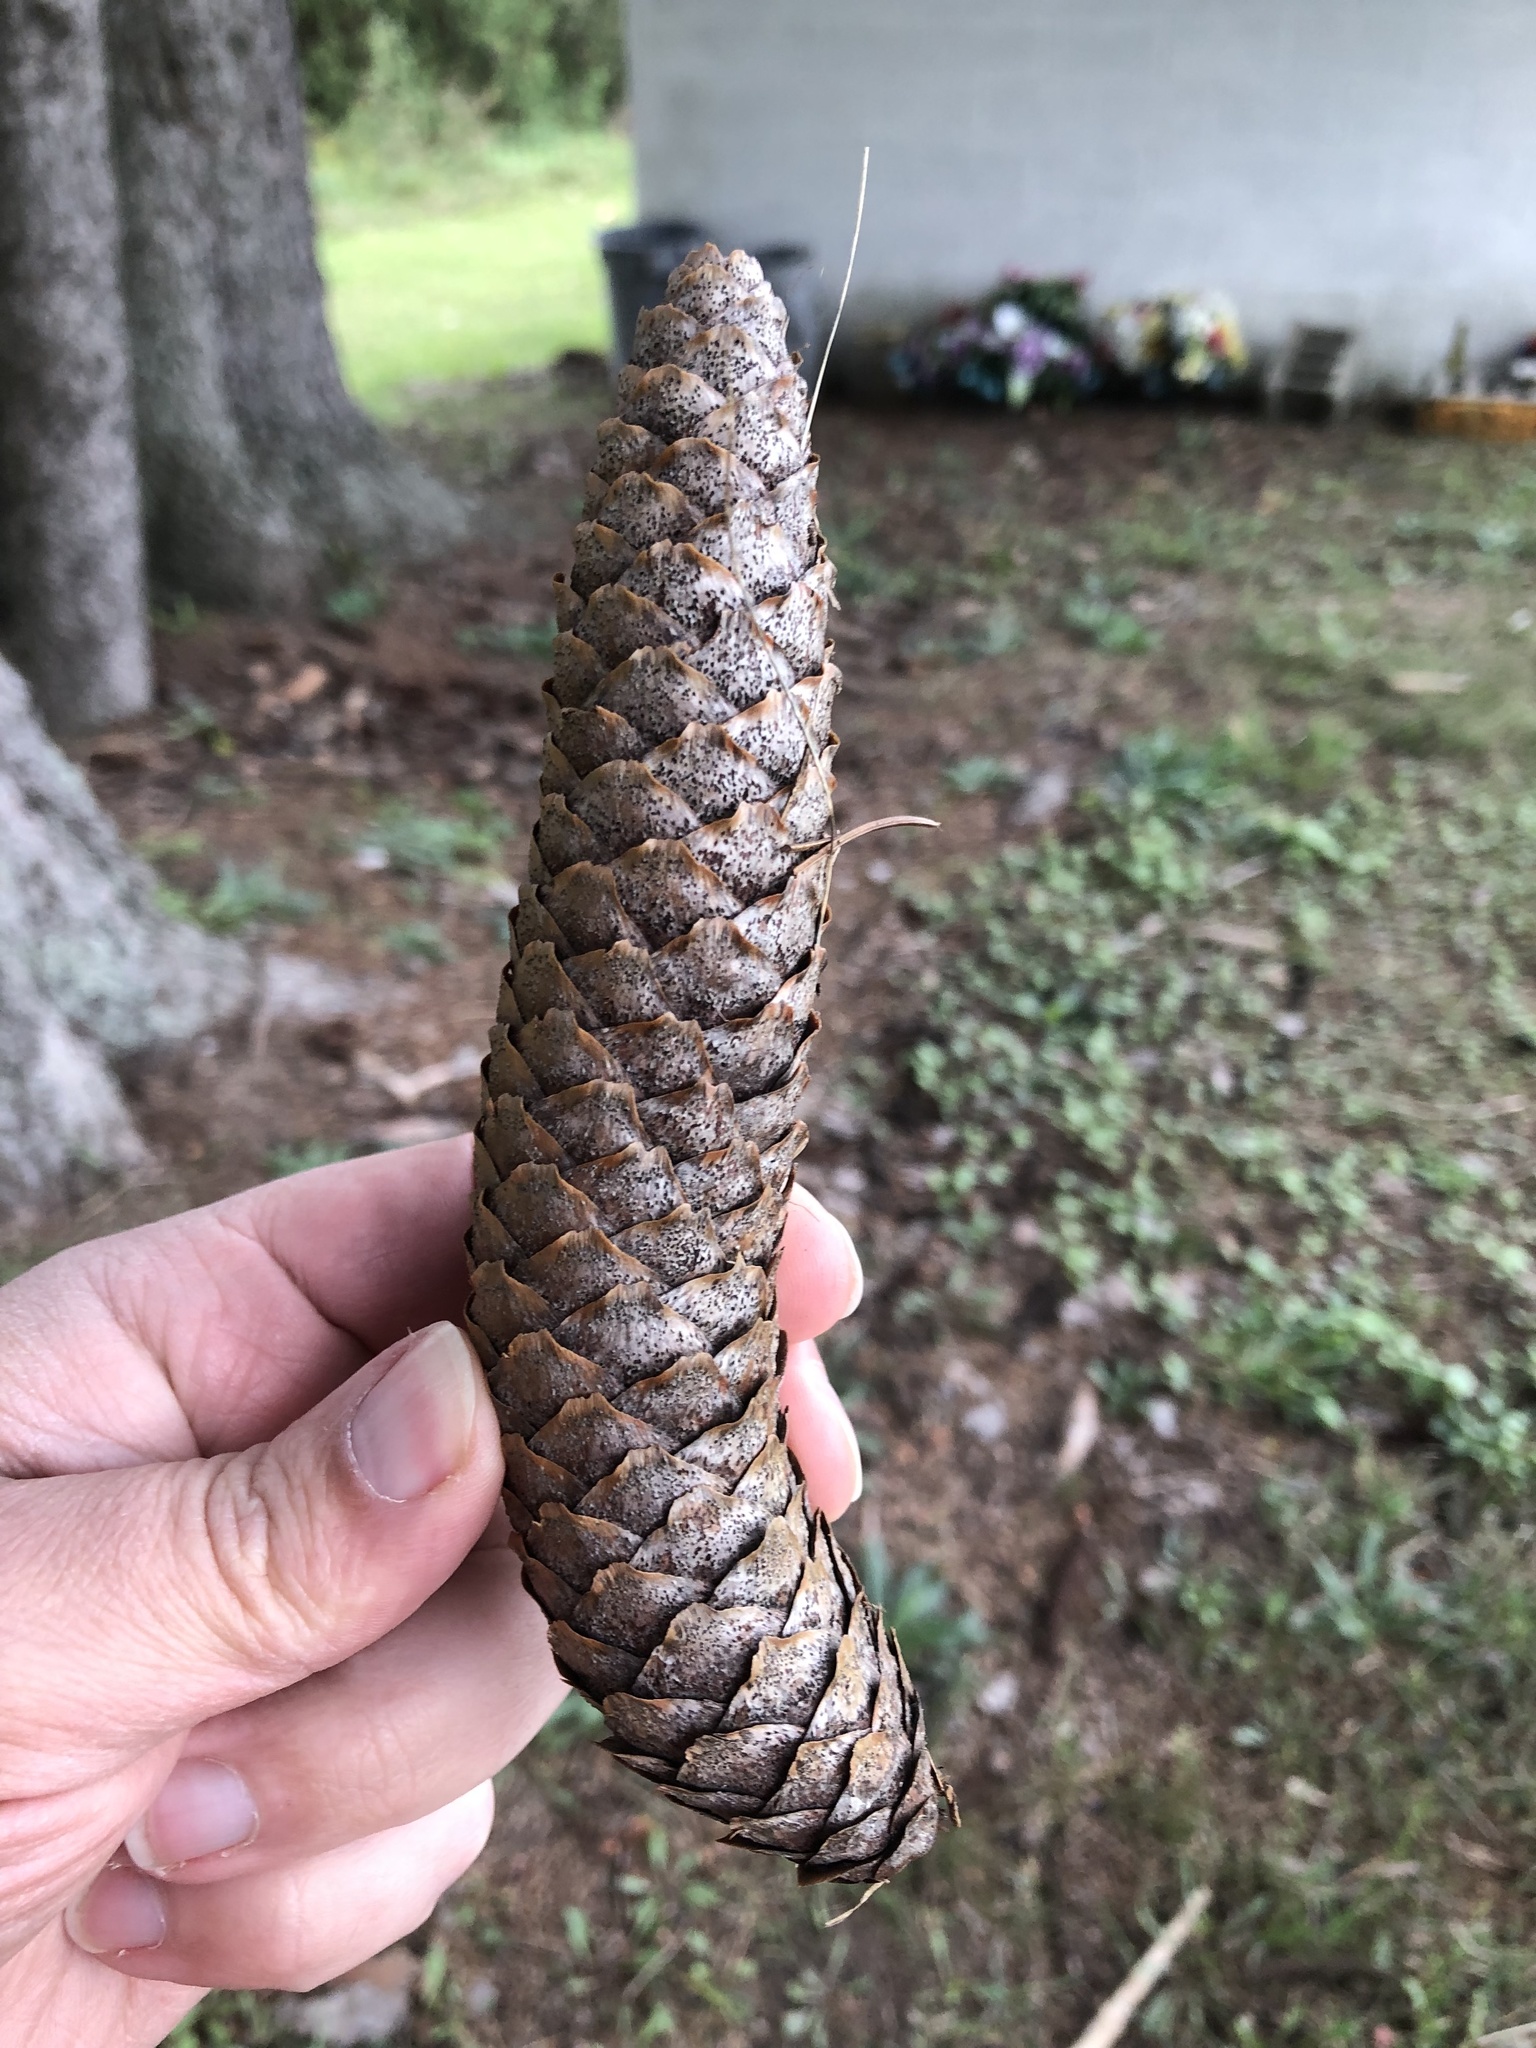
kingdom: Plantae
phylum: Tracheophyta
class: Pinopsida
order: Pinales
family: Pinaceae
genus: Picea
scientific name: Picea abies
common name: Norway spruce
